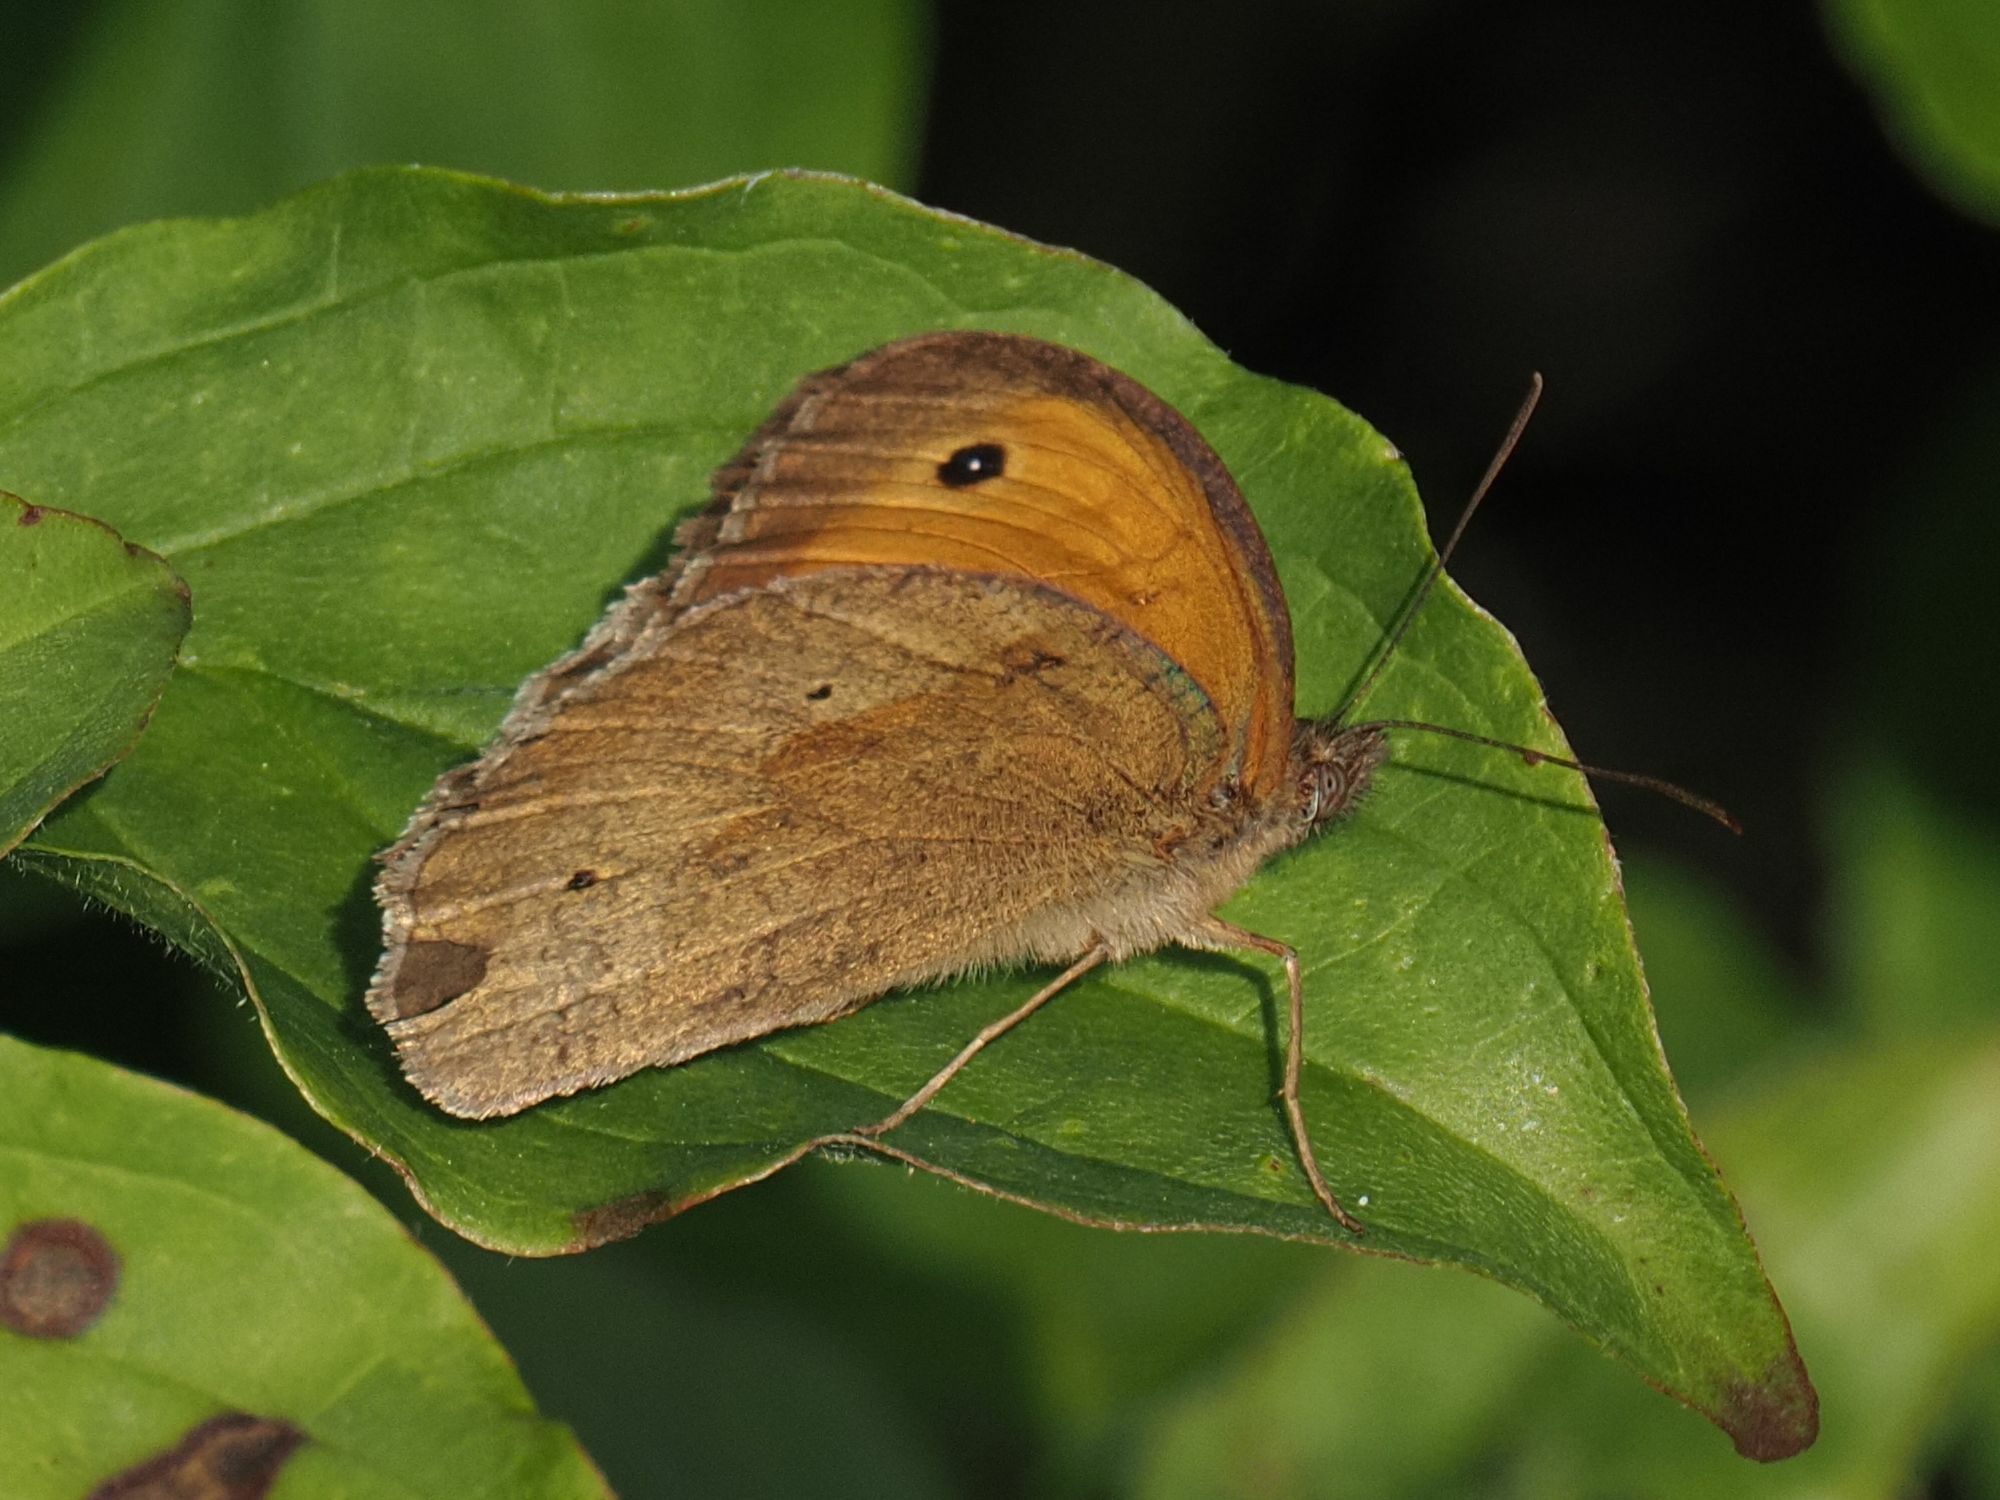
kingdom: Animalia
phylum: Arthropoda
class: Insecta
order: Lepidoptera
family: Nymphalidae
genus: Maniola
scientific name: Maniola jurtina
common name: Meadow brown
